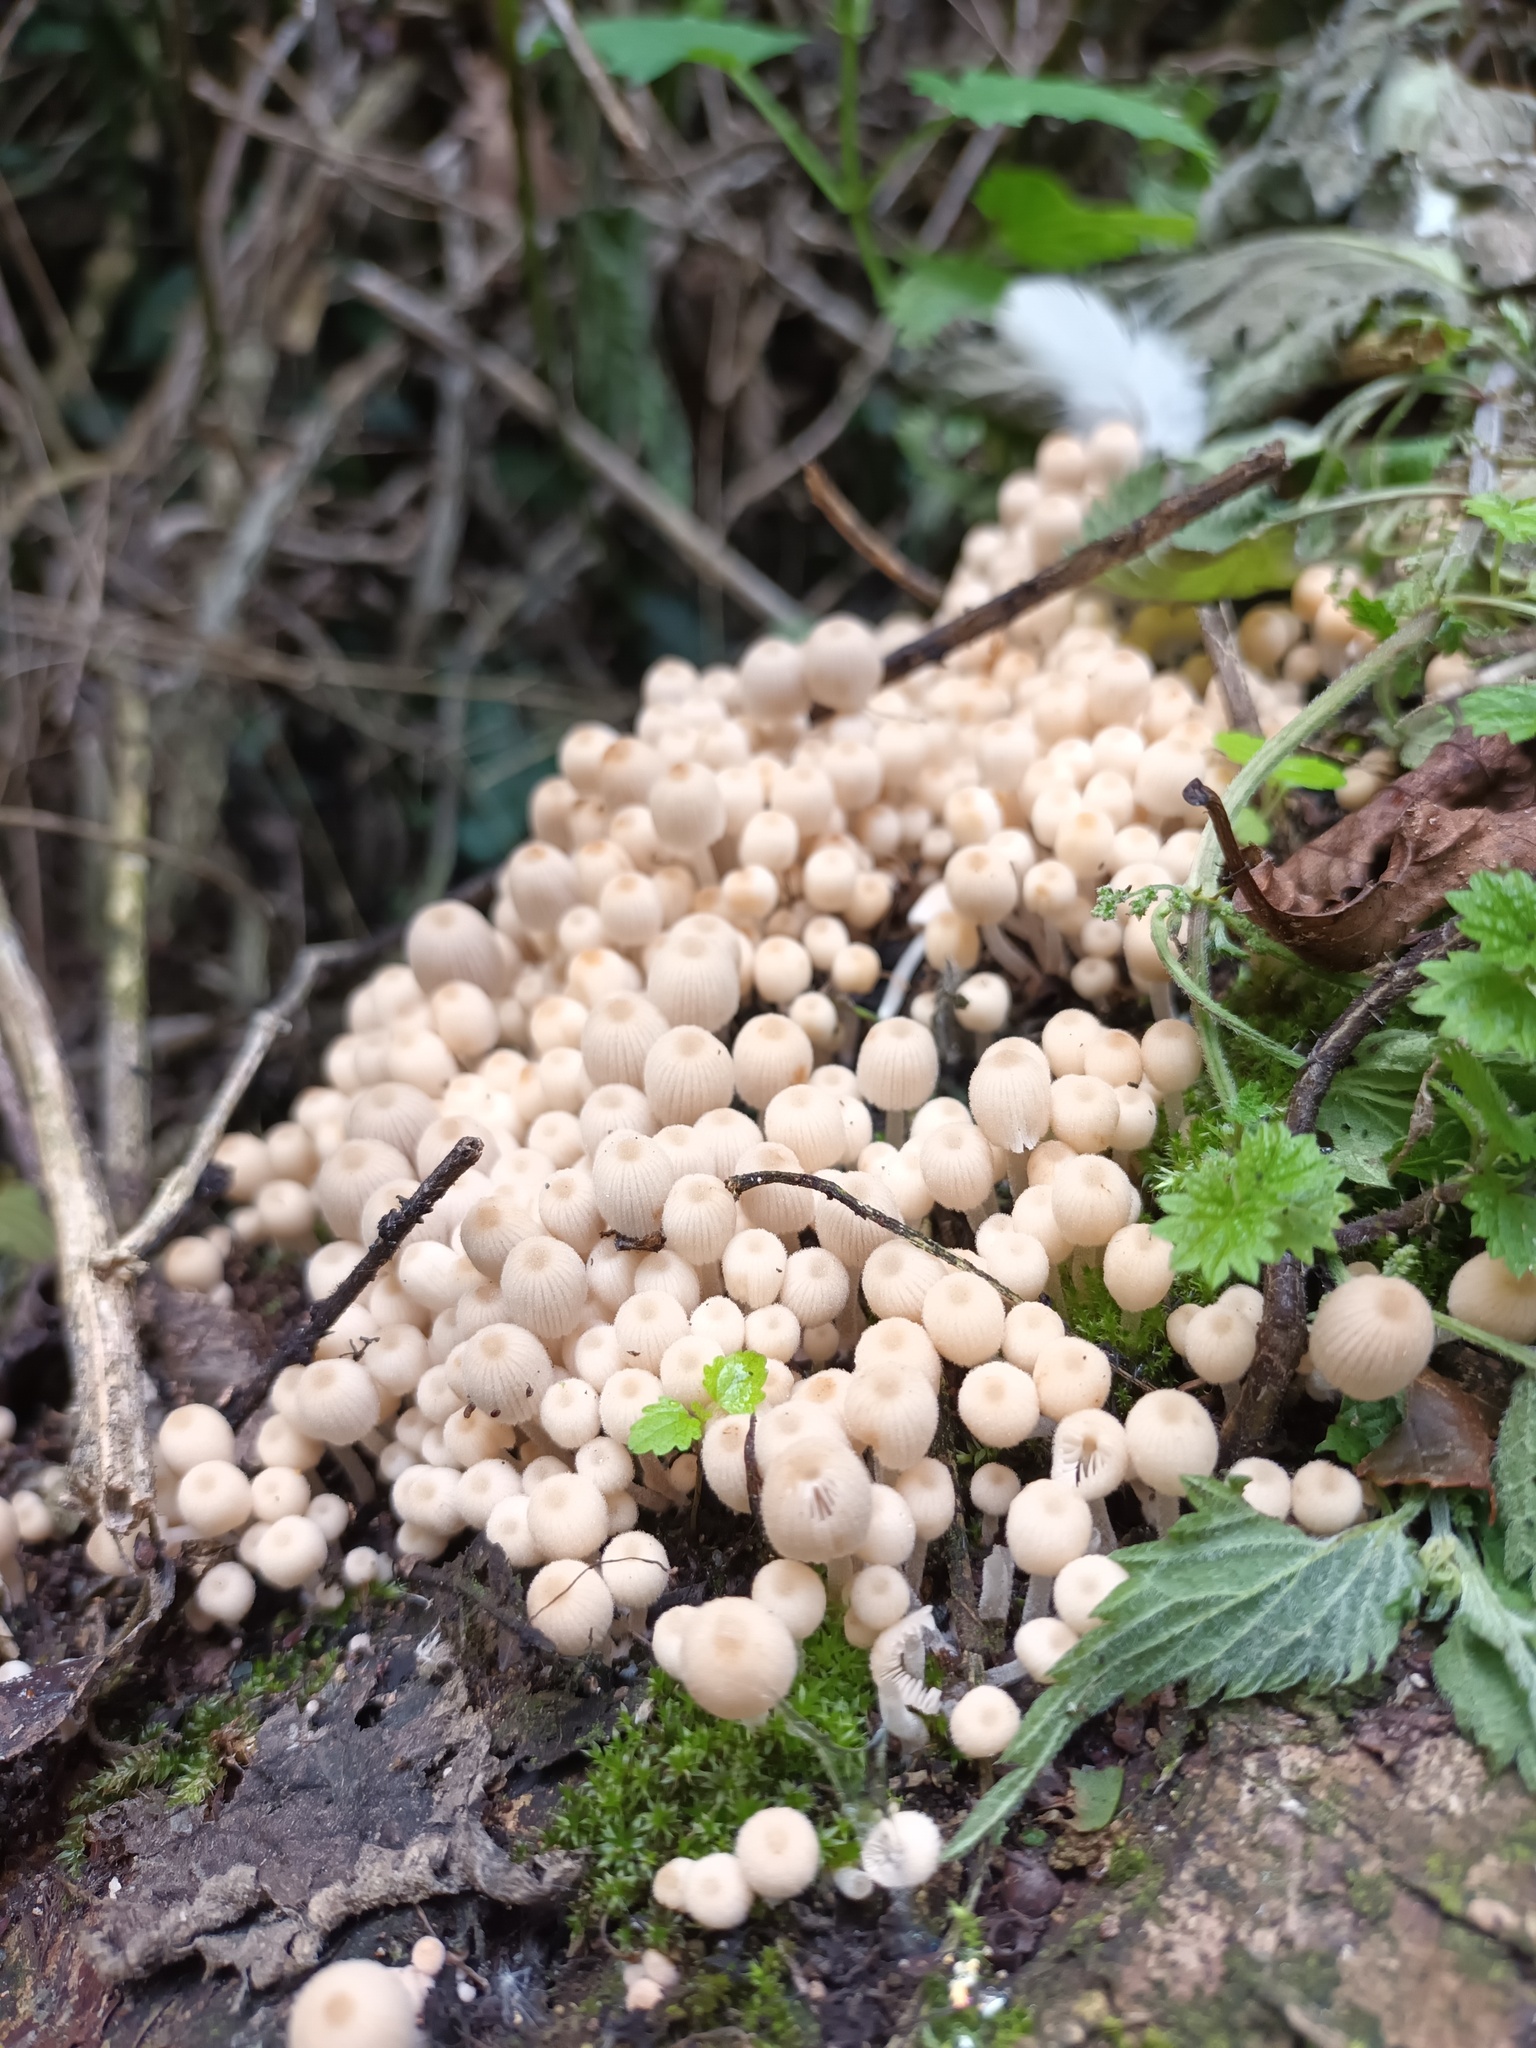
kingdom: Fungi
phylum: Basidiomycota
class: Agaricomycetes
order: Agaricales
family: Psathyrellaceae
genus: Coprinellus
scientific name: Coprinellus disseminatus
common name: Fairies' bonnets
